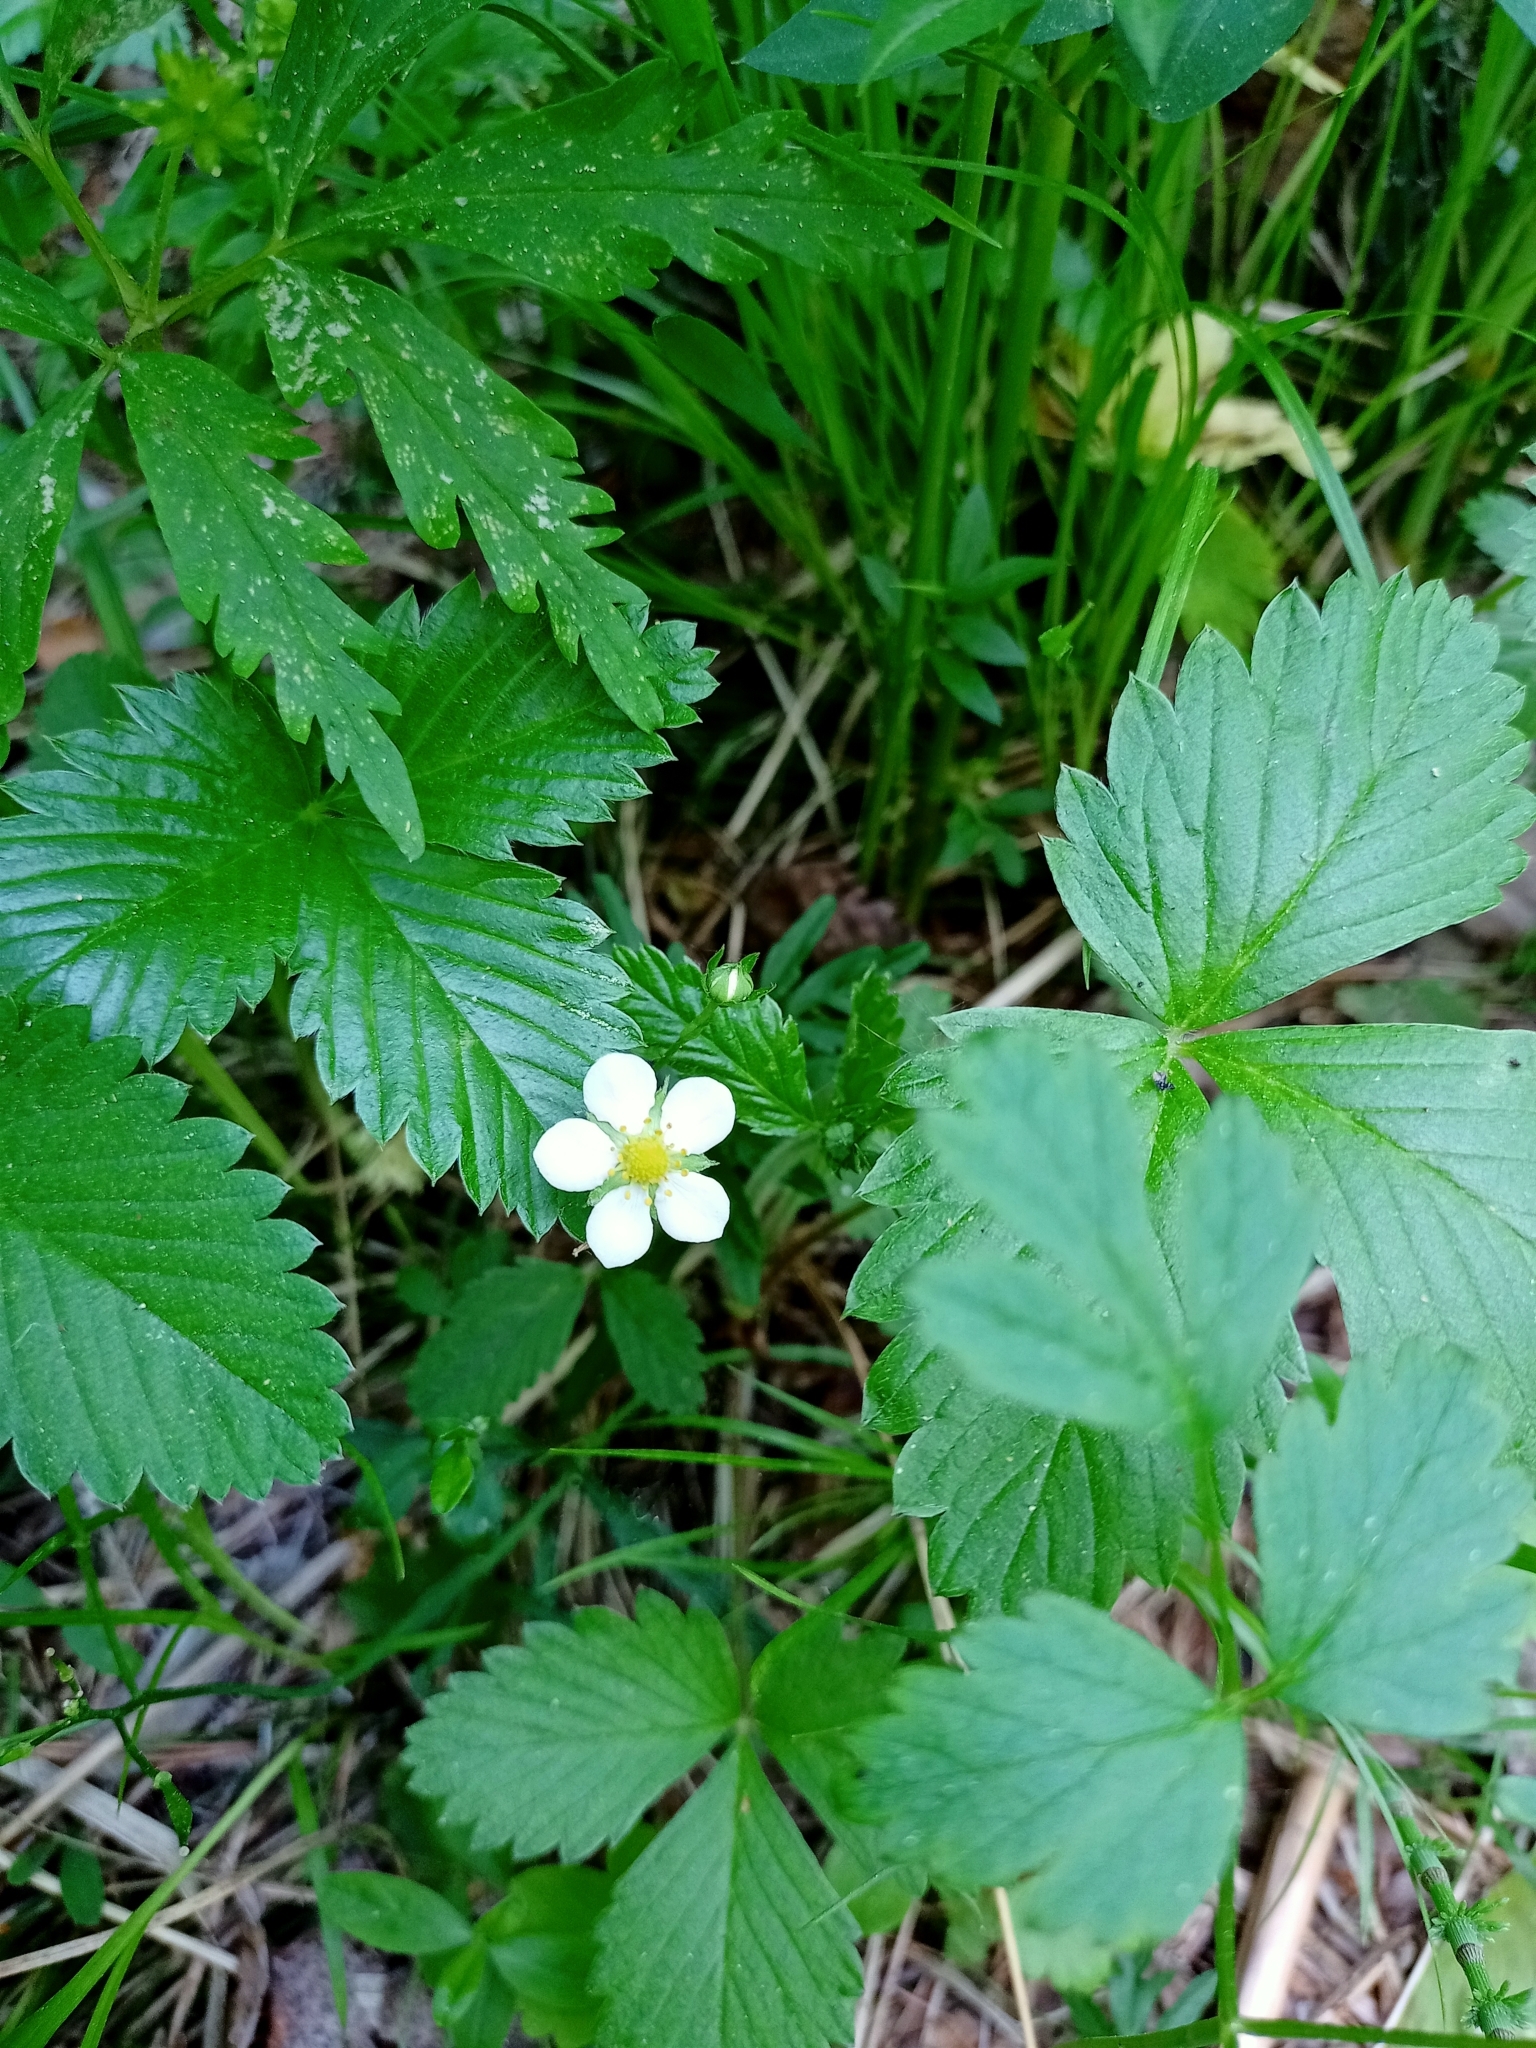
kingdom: Plantae
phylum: Tracheophyta
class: Magnoliopsida
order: Rosales
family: Rosaceae
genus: Fragaria
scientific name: Fragaria vesca
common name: Wild strawberry
